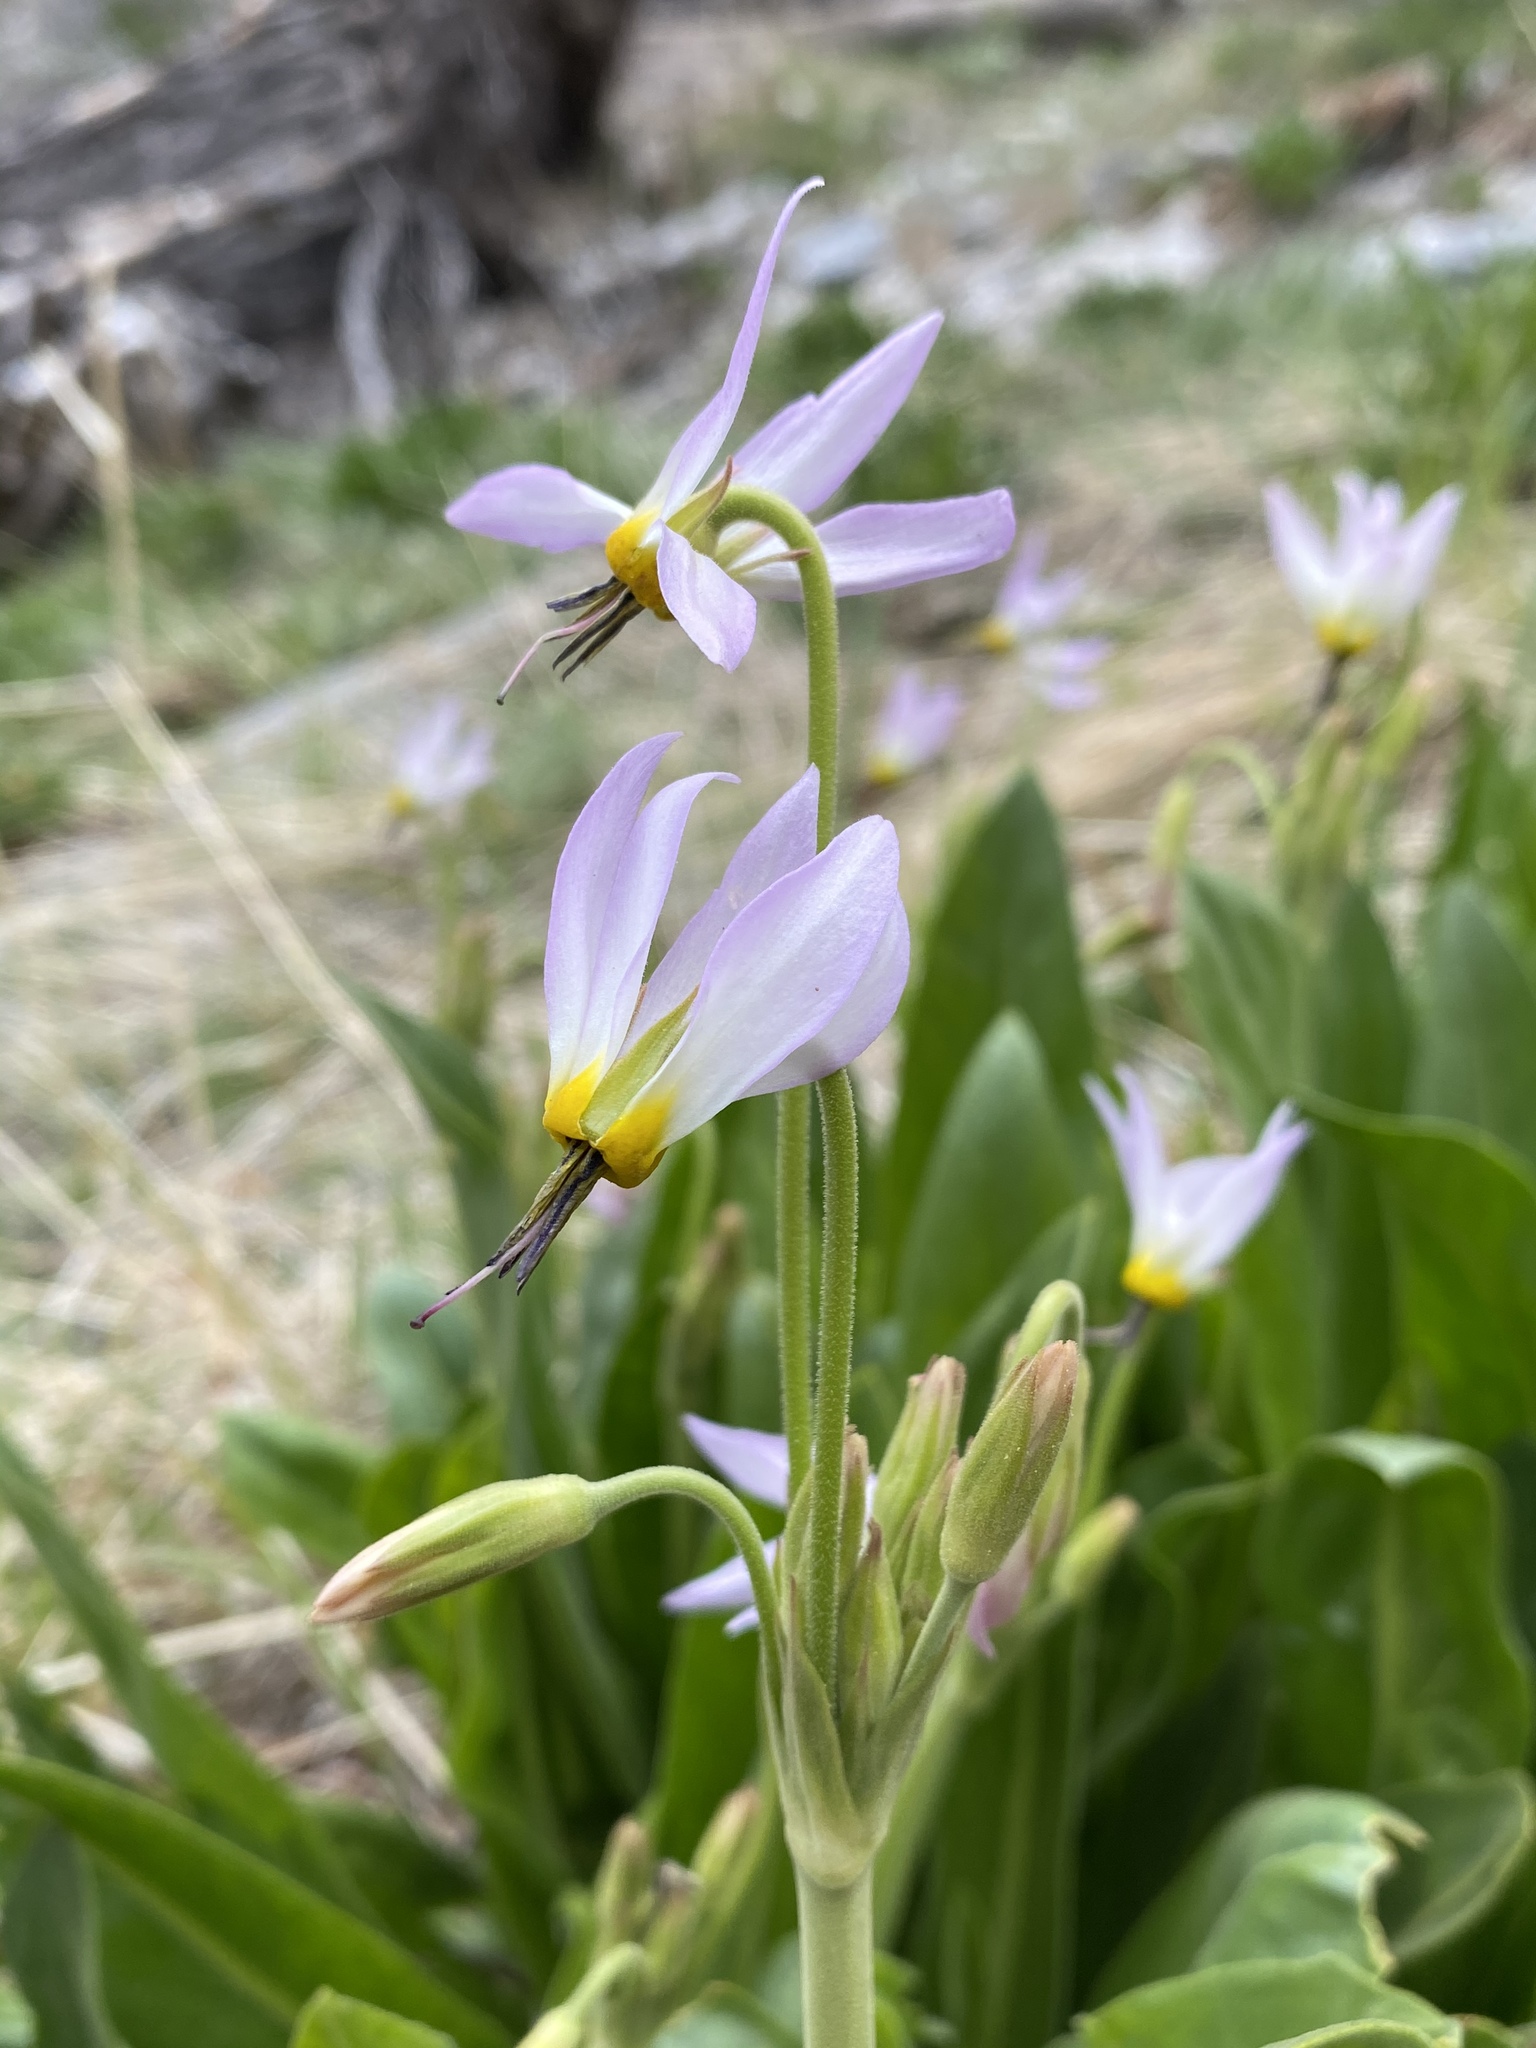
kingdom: Plantae
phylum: Tracheophyta
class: Magnoliopsida
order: Ericales
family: Primulaceae
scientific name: Primulaceae
